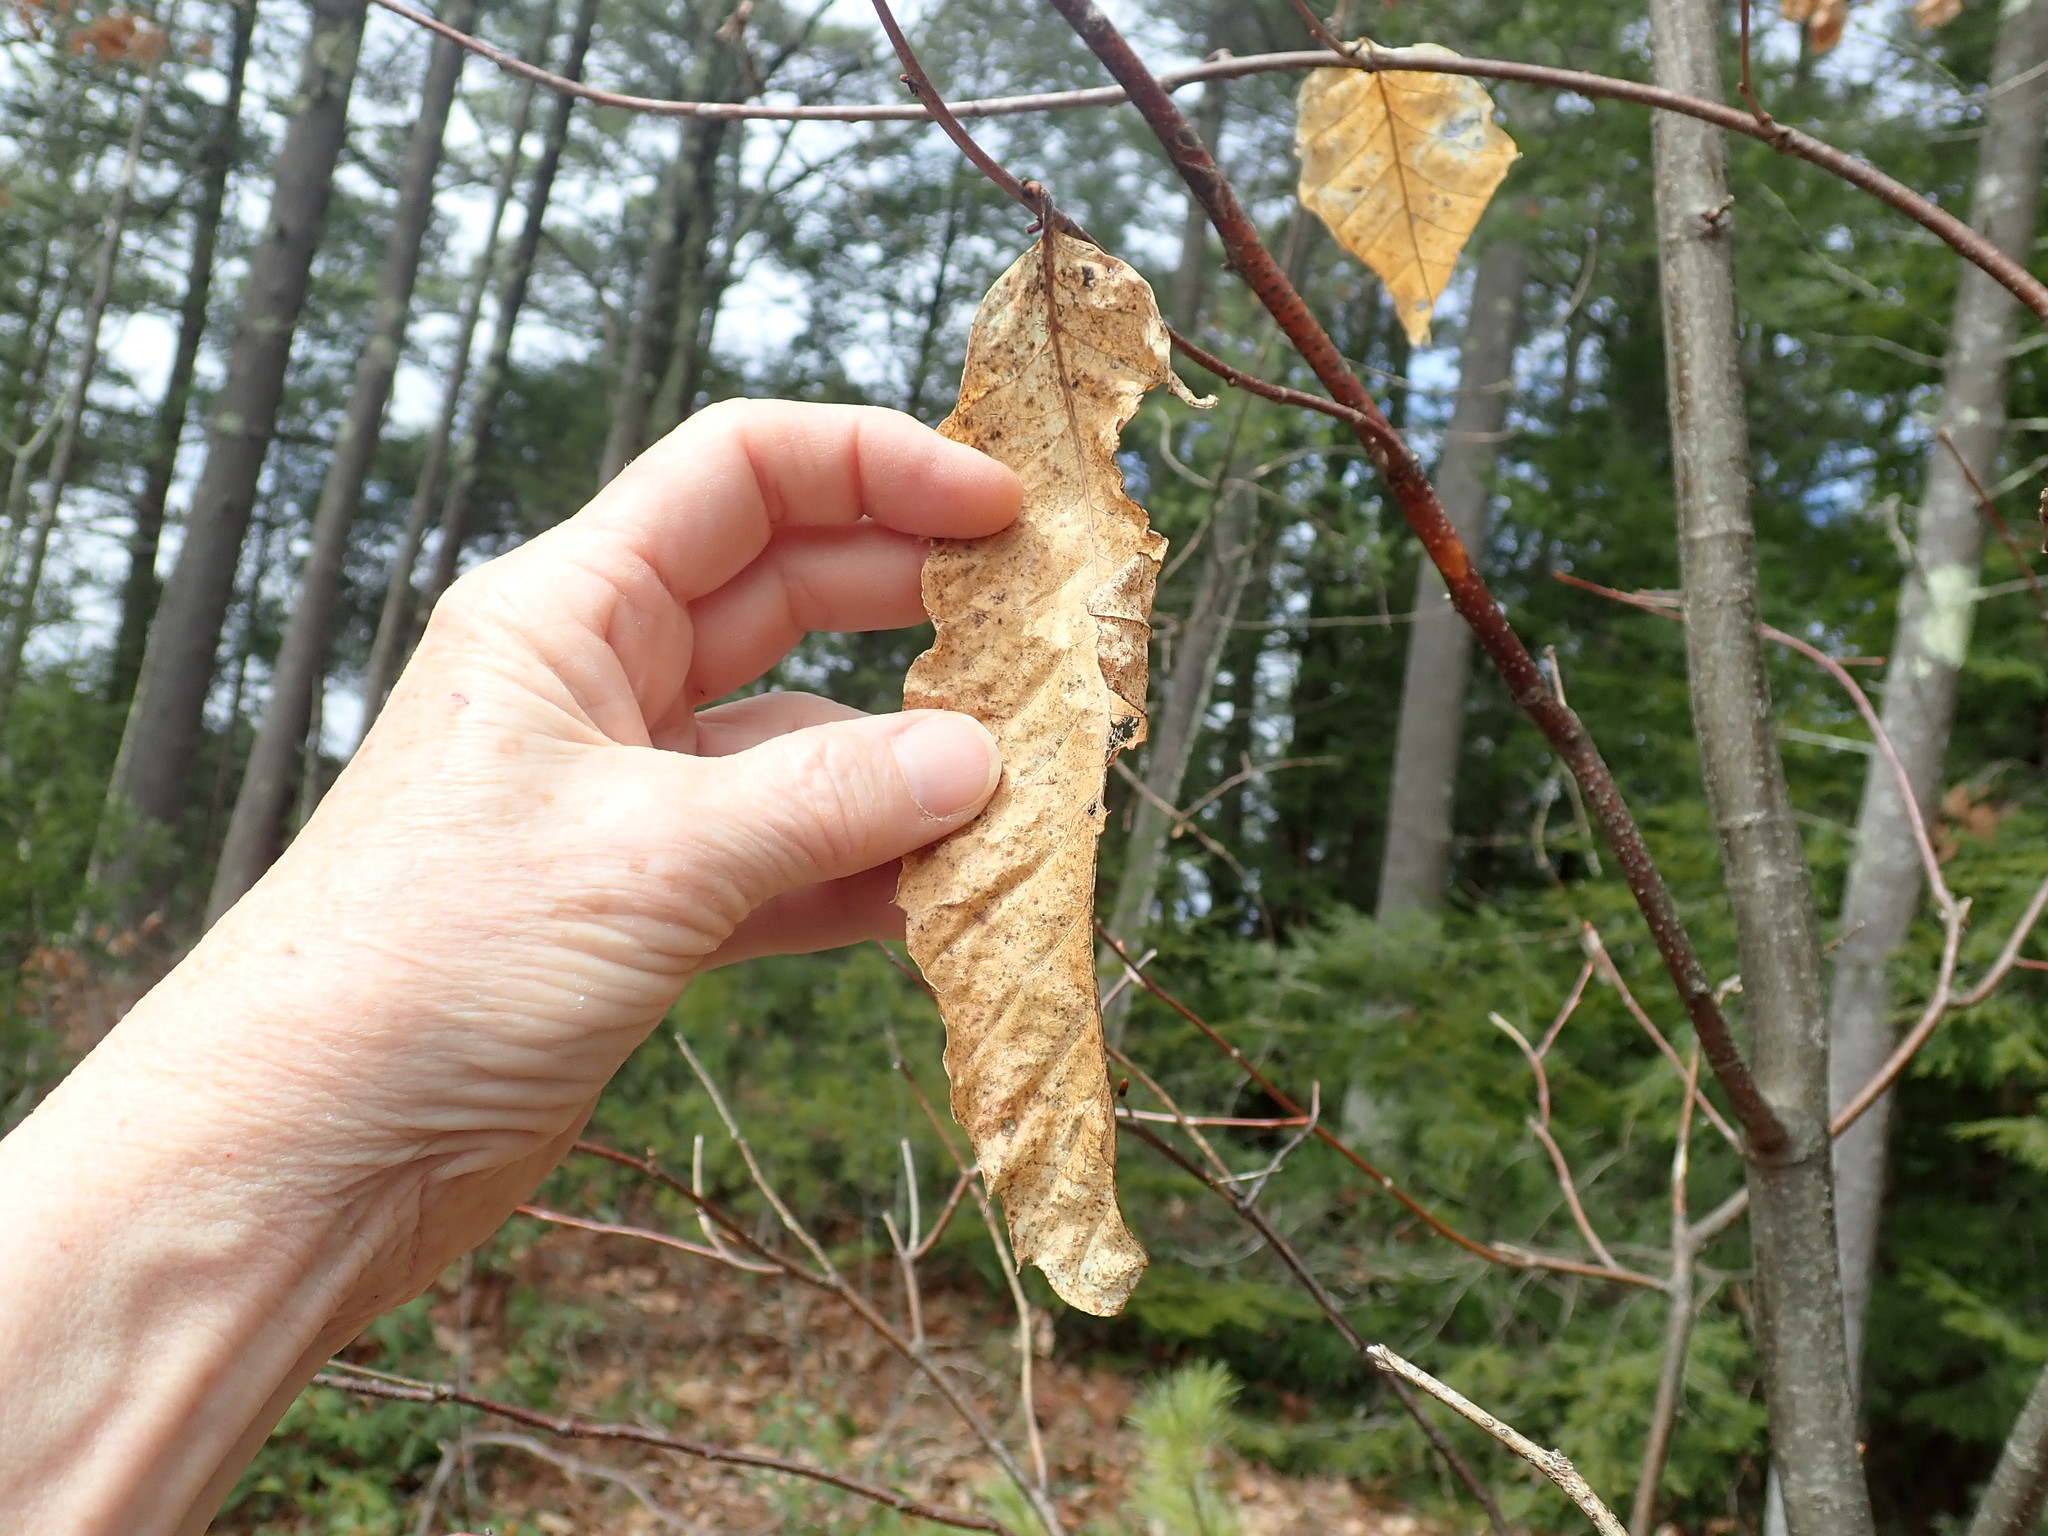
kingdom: Plantae
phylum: Tracheophyta
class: Magnoliopsida
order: Fagales
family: Fagaceae
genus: Castanea
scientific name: Castanea dentata
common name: American chestnut
